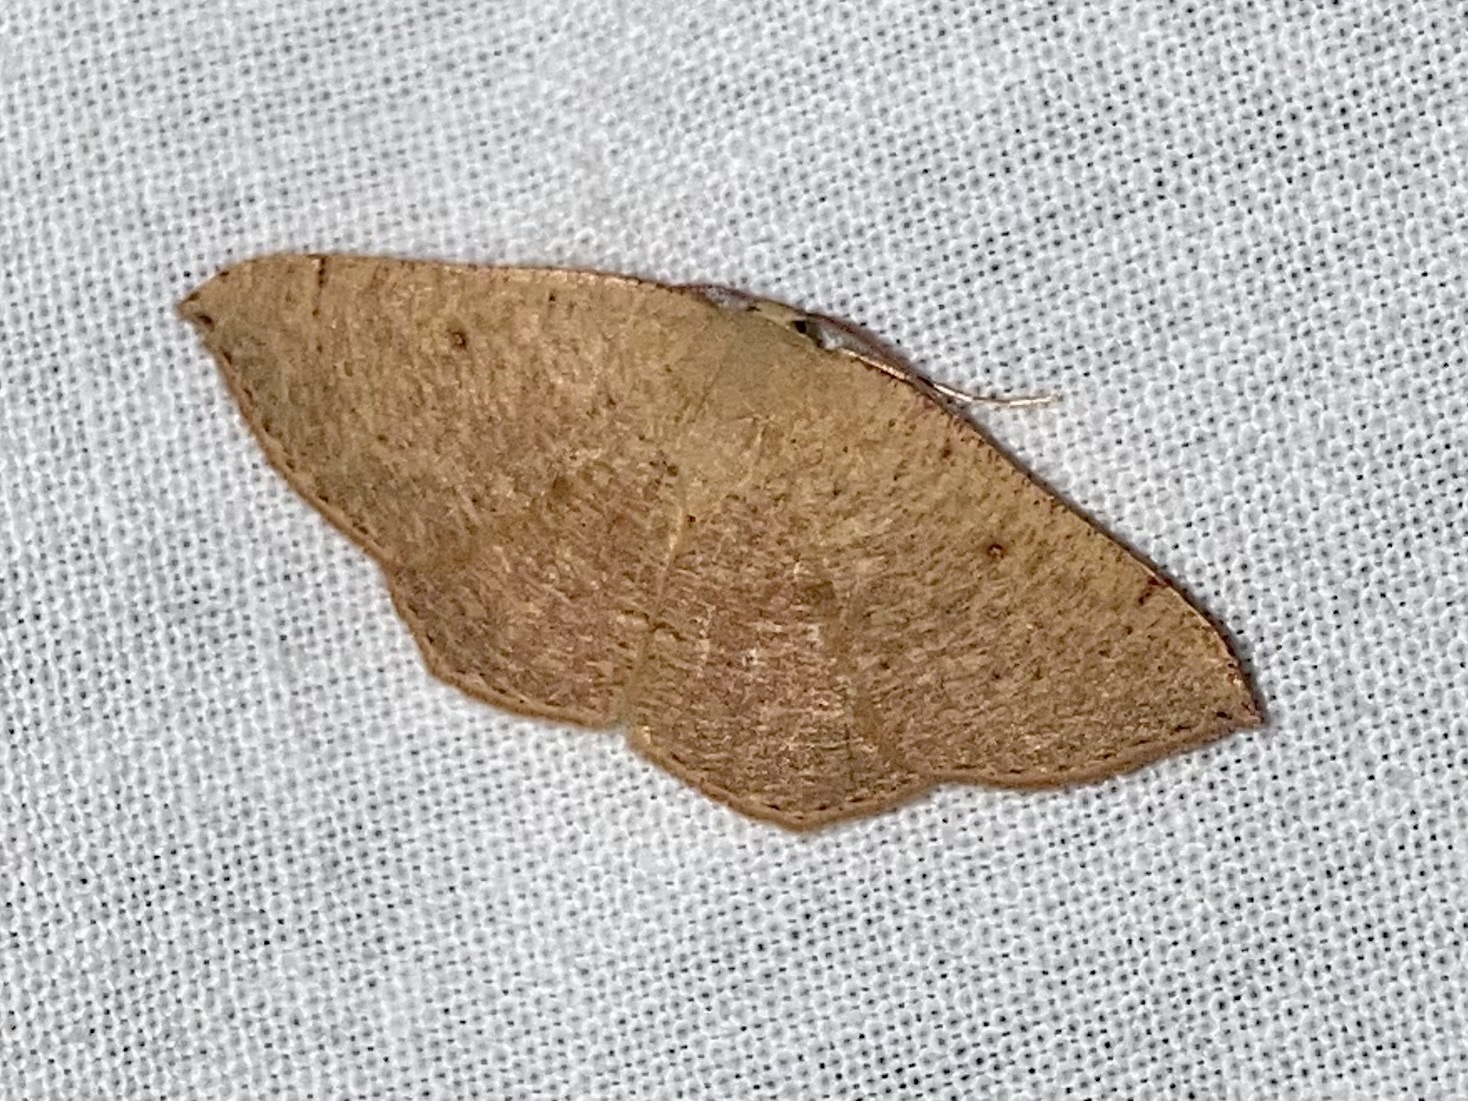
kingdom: Animalia
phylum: Arthropoda
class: Insecta
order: Lepidoptera
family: Geometridae
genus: Cyclophora
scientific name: Cyclophora puppillaria
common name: Blair's mocha
